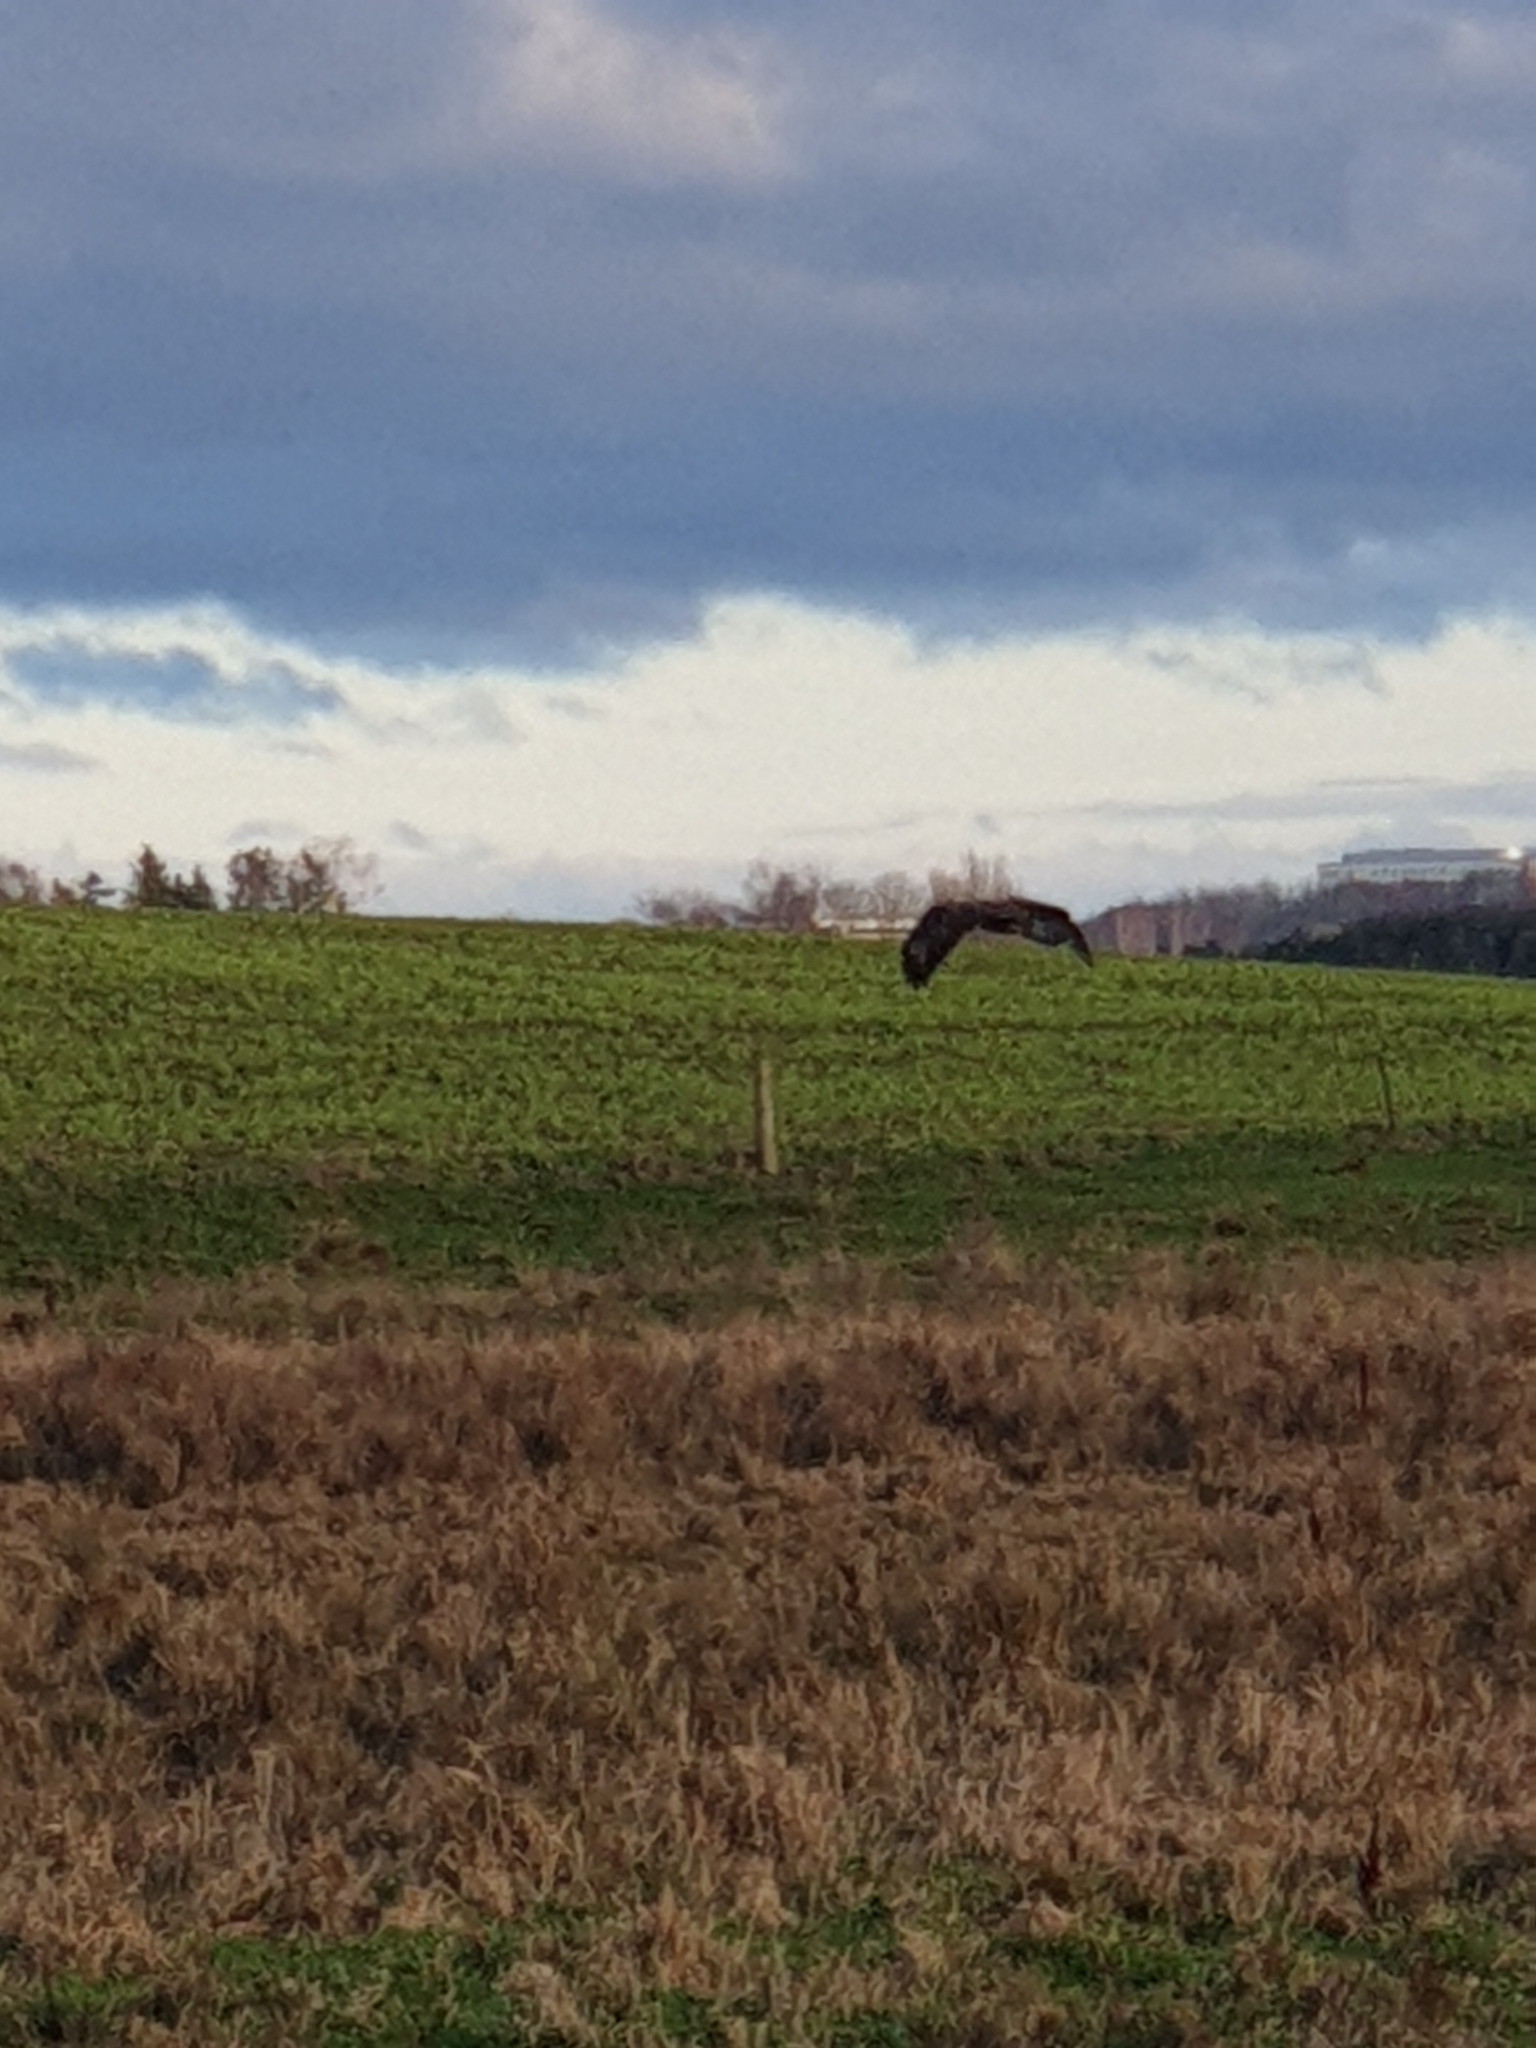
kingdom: Animalia
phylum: Chordata
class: Aves
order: Accipitriformes
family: Accipitridae
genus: Buteo
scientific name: Buteo buteo
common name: Common buzzard
